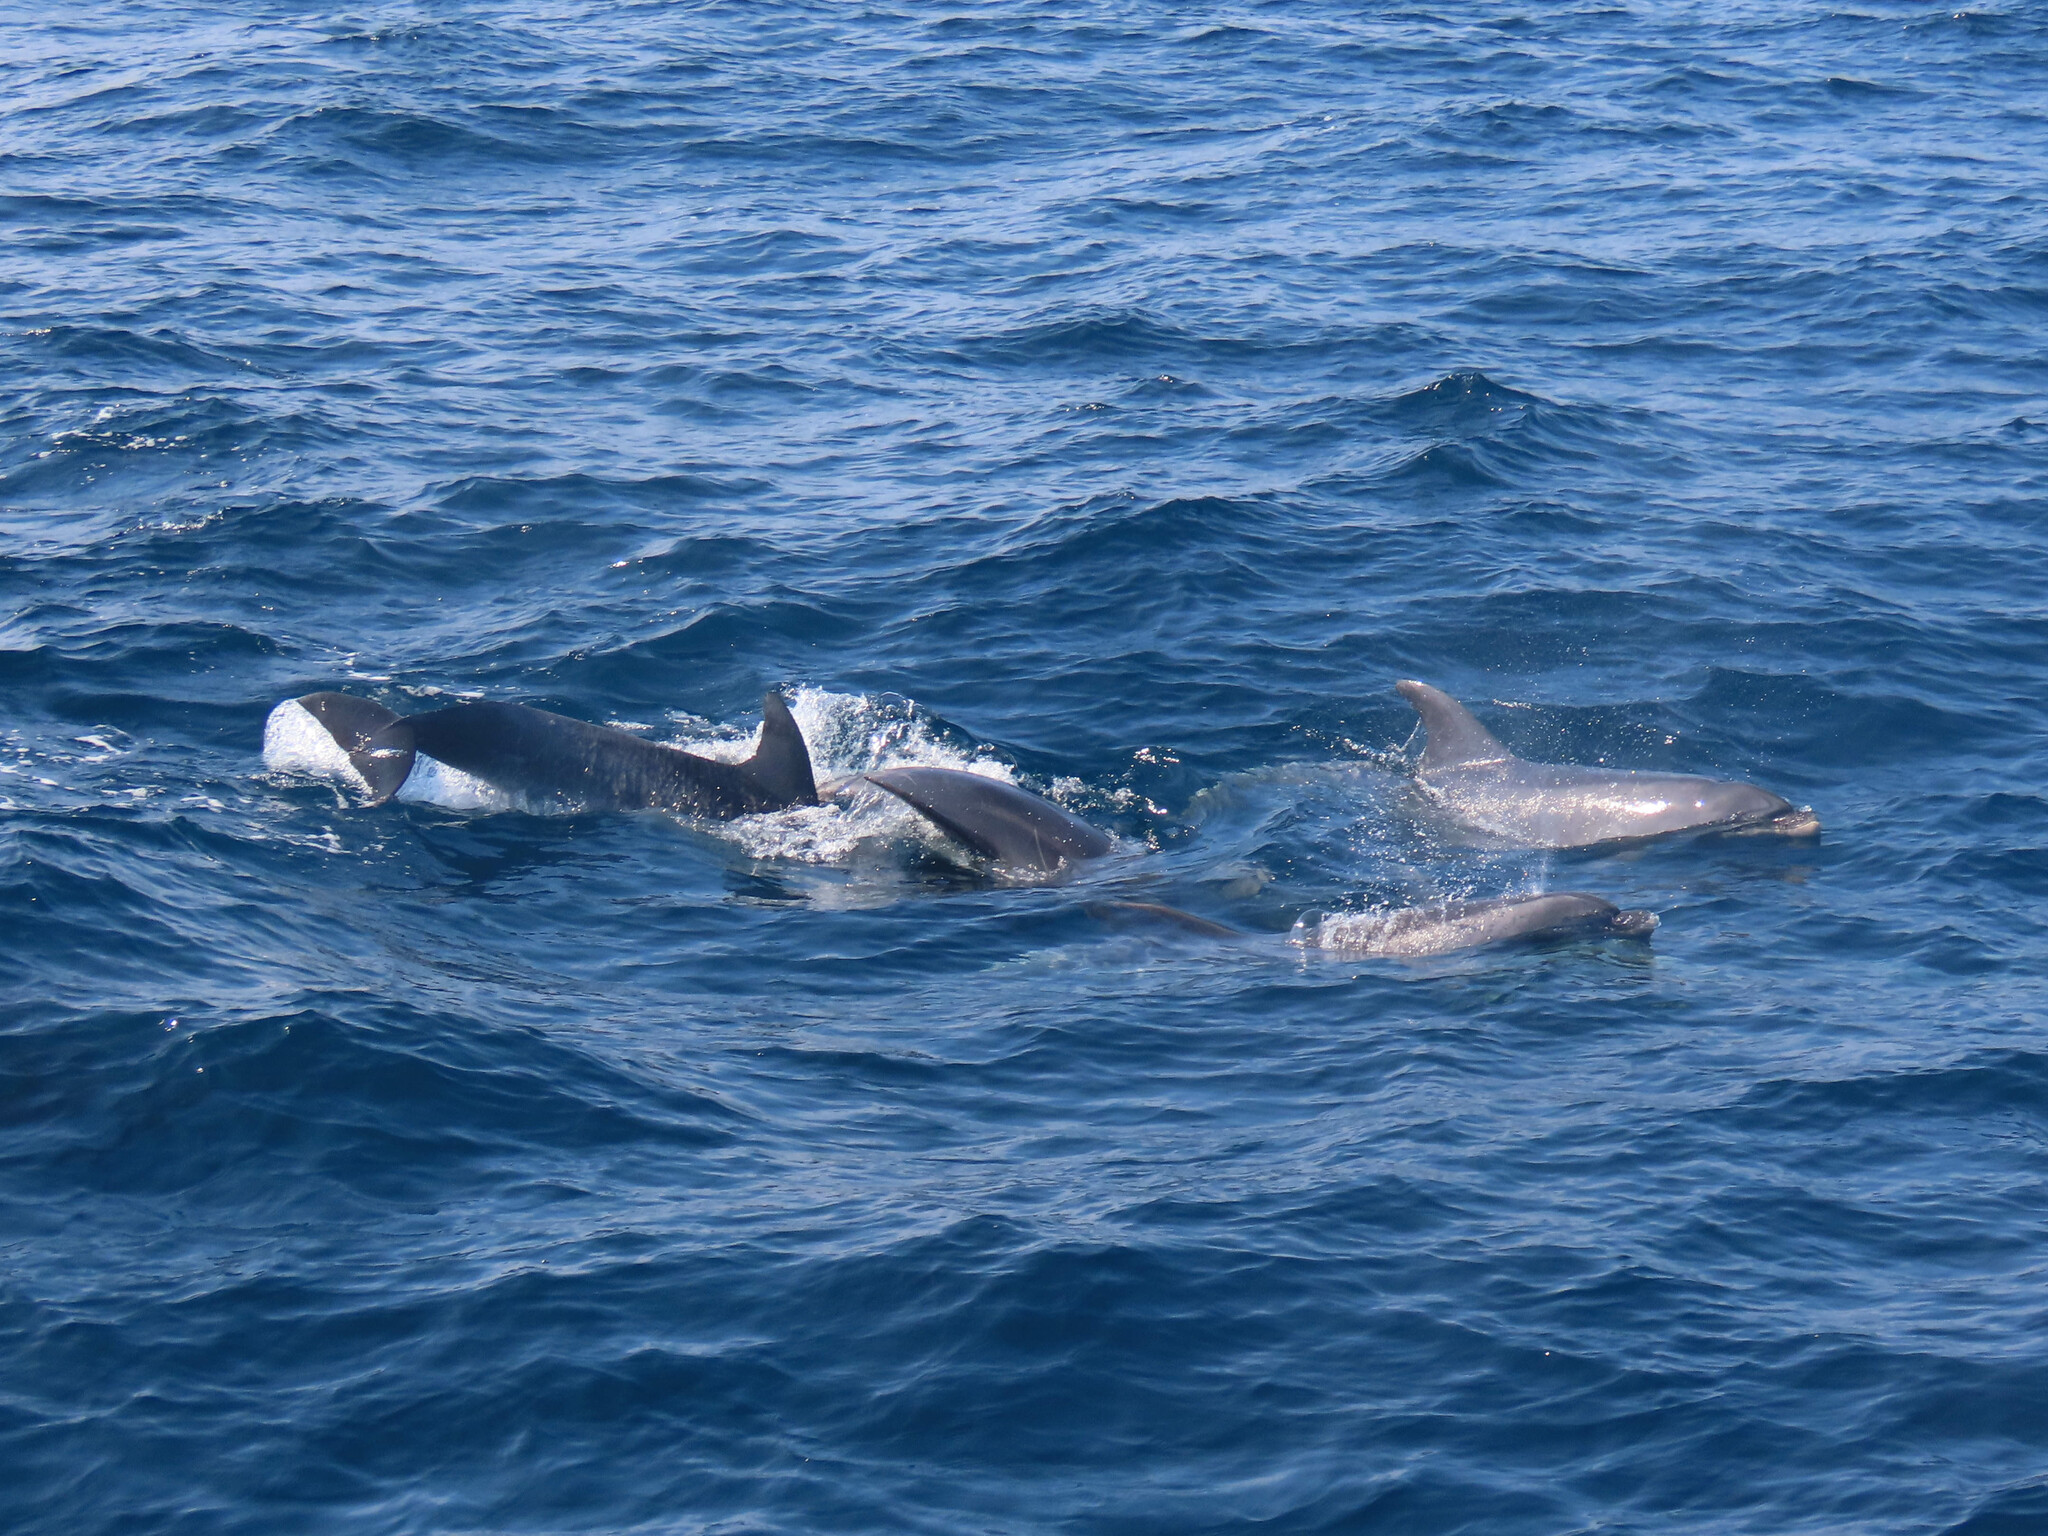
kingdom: Animalia
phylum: Chordata
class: Mammalia
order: Cetacea
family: Delphinidae
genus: Tursiops
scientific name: Tursiops truncatus
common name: Bottlenose dolphin
